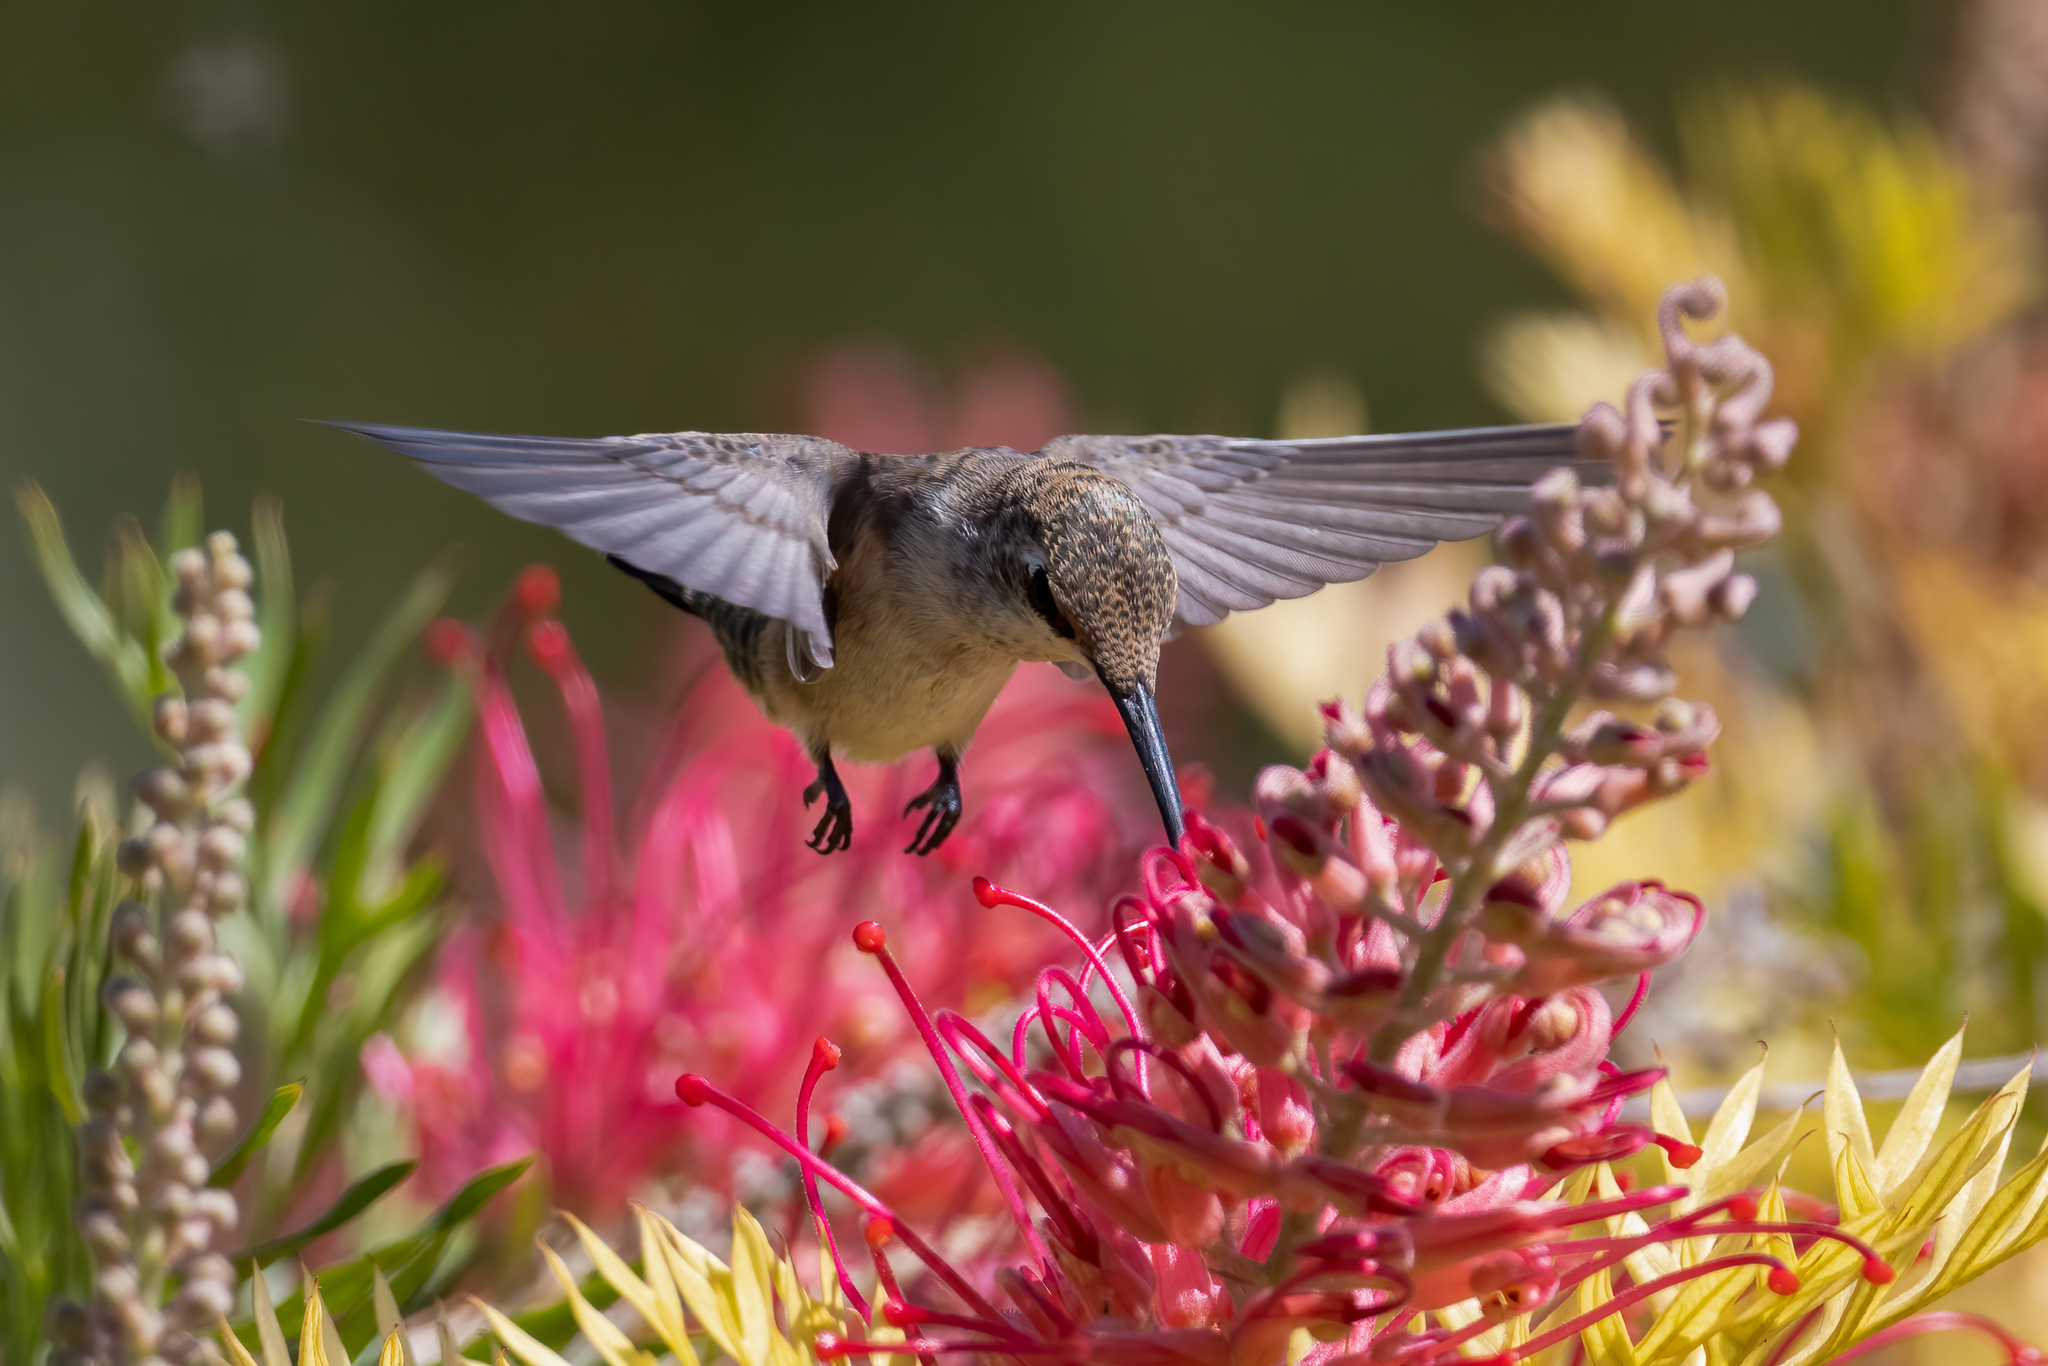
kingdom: Animalia
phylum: Chordata
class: Aves
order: Apodiformes
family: Trochilidae
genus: Archilochus
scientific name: Archilochus alexandri
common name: Black-chinned hummingbird
